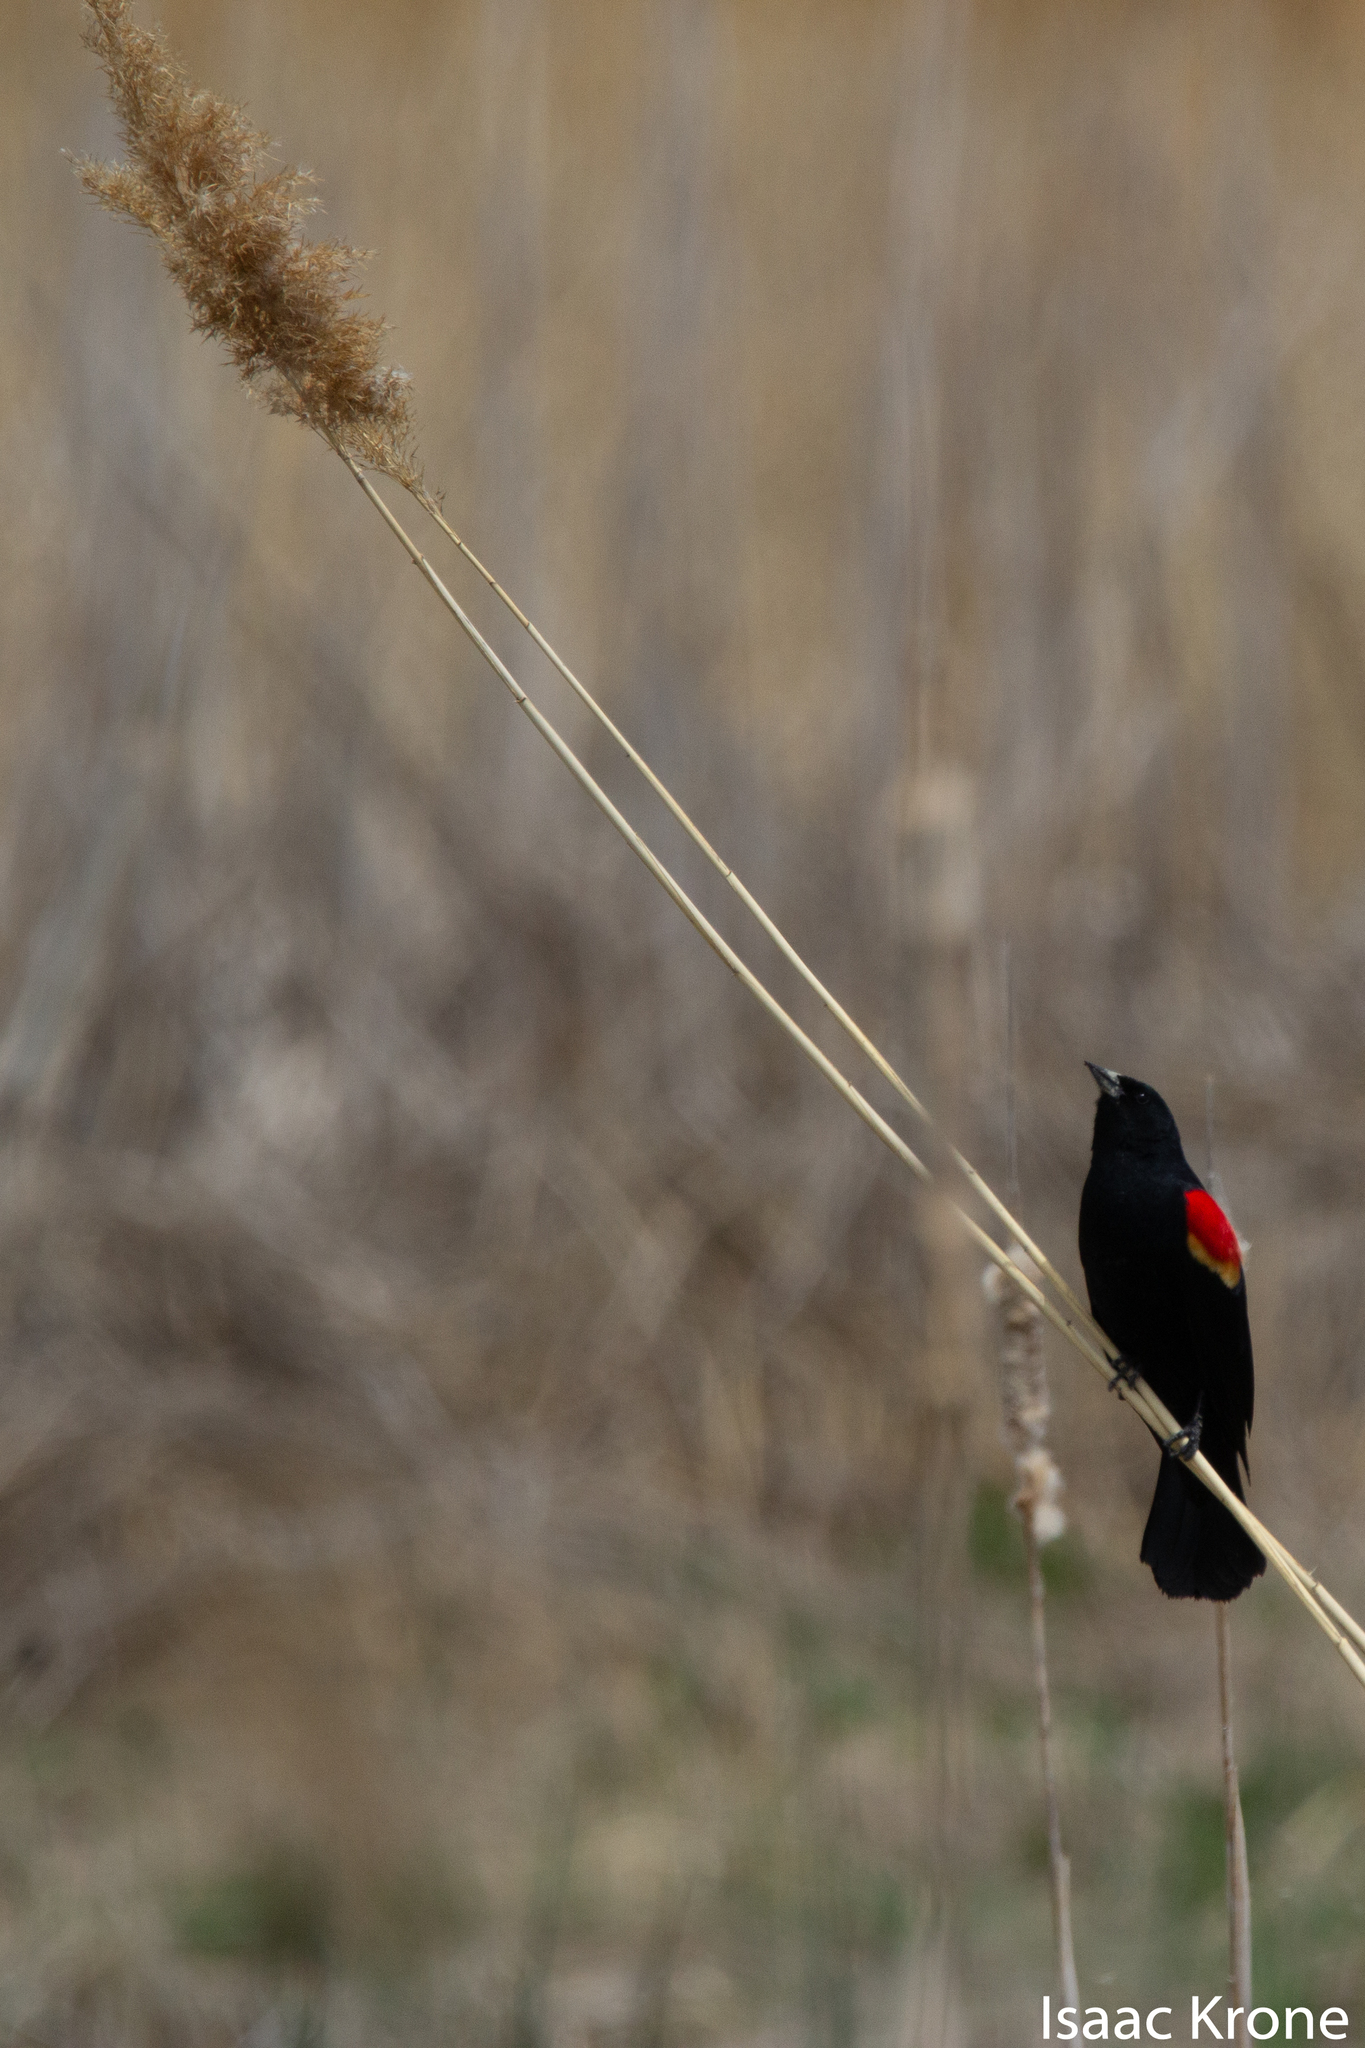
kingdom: Animalia
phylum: Chordata
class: Aves
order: Passeriformes
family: Icteridae
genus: Agelaius
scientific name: Agelaius phoeniceus
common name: Red-winged blackbird
